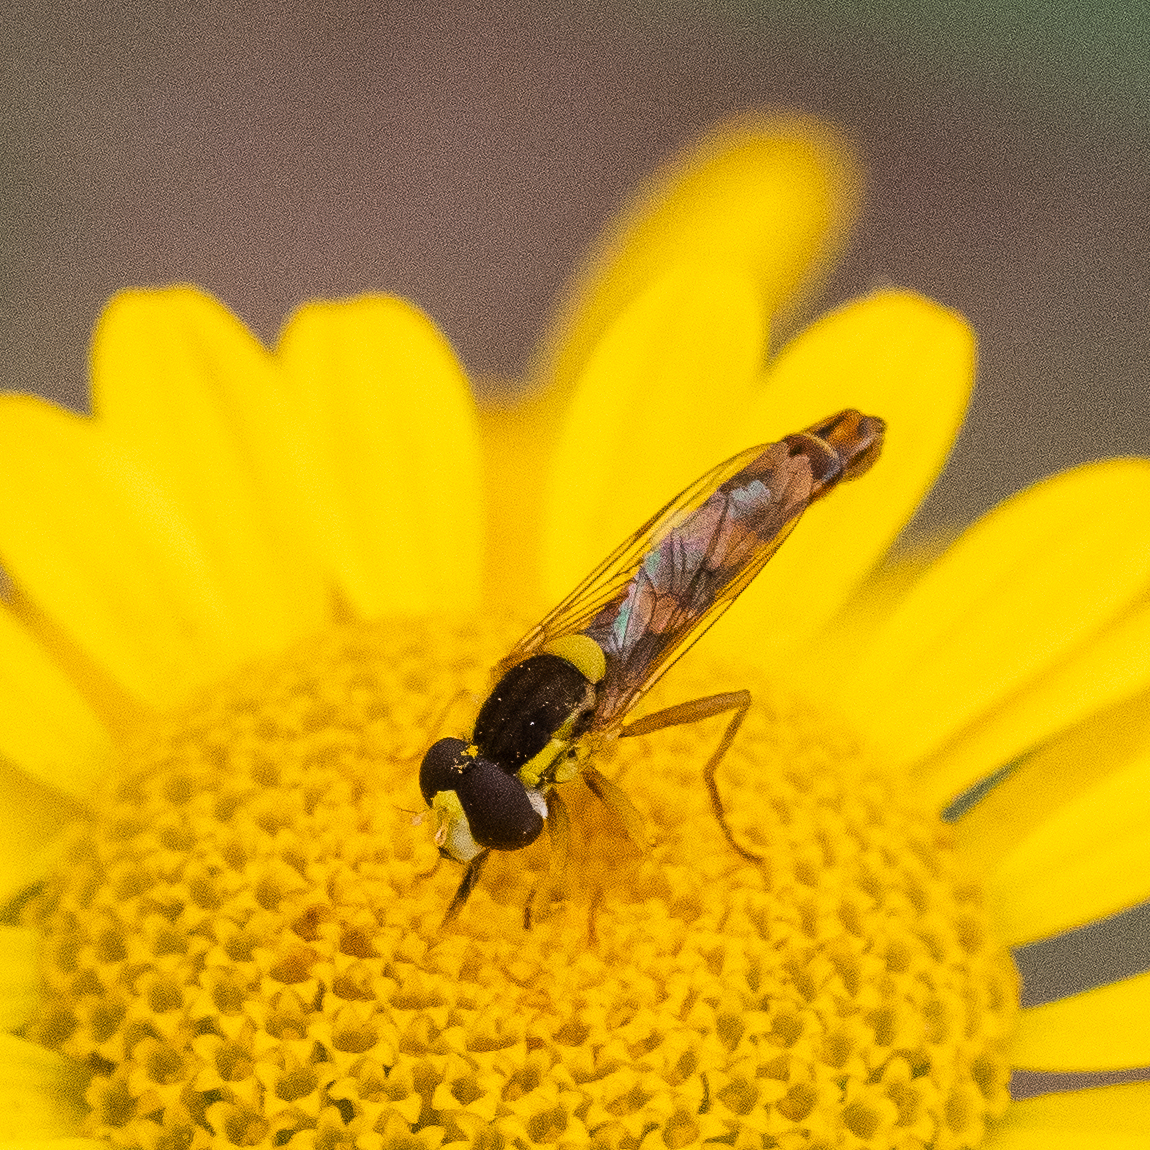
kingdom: Animalia
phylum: Arthropoda
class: Insecta
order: Diptera
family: Syrphidae
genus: Sphaerophoria
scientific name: Sphaerophoria scripta
